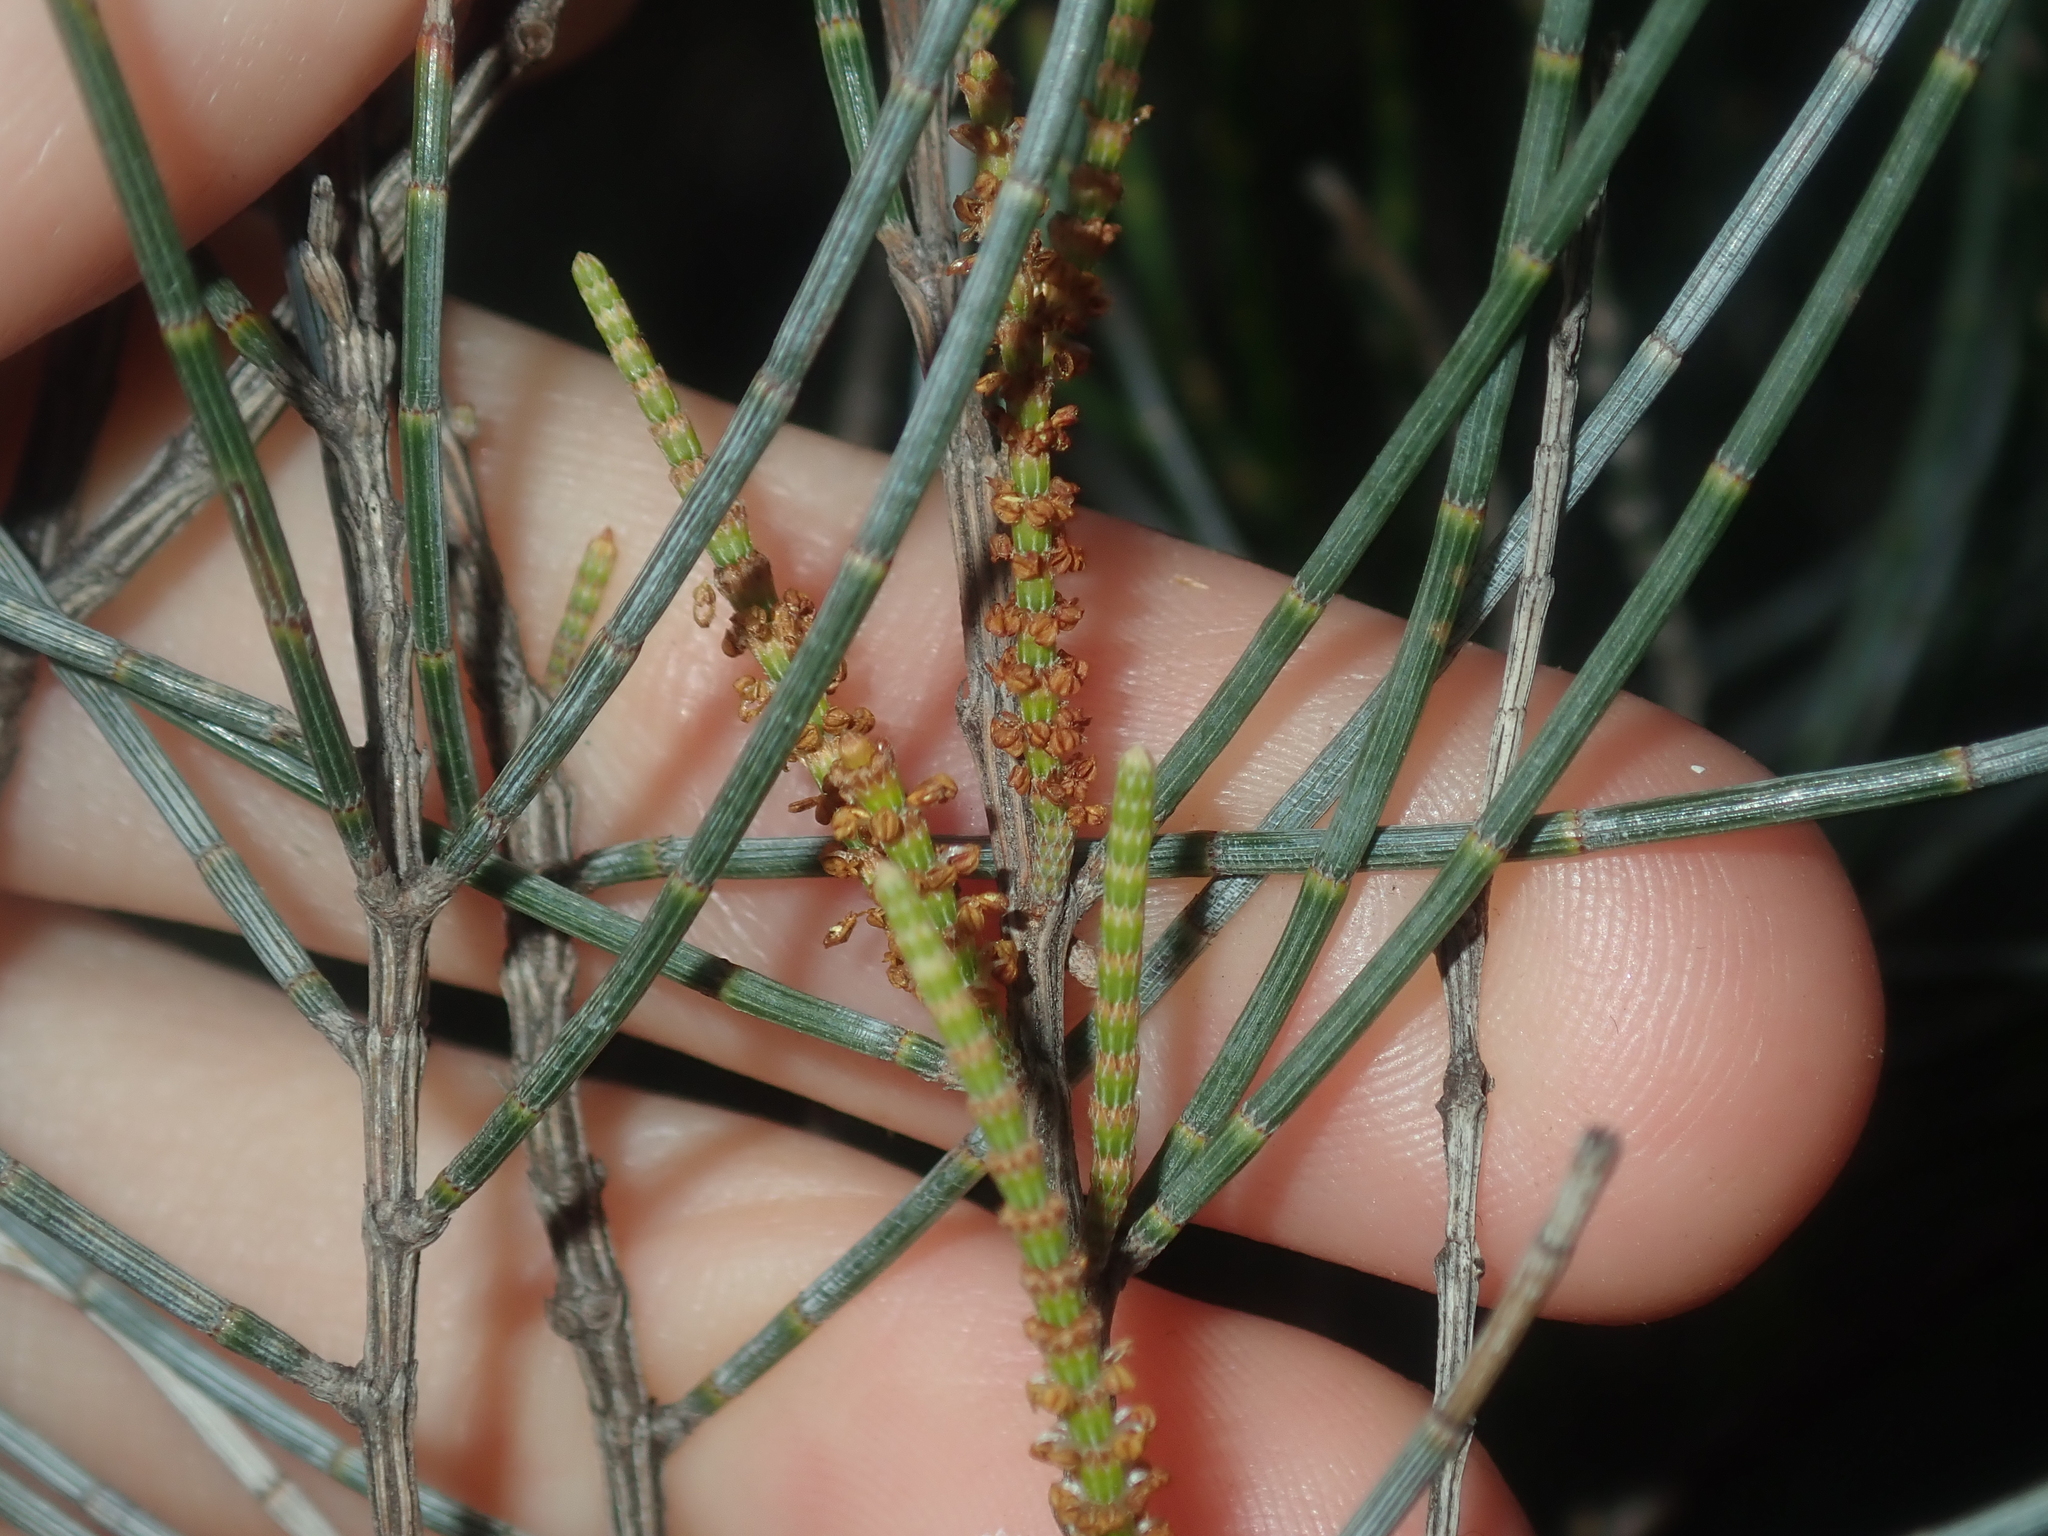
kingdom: Plantae
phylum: Tracheophyta
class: Magnoliopsida
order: Fagales
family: Casuarinaceae
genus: Allocasuarina
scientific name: Allocasuarina campestris
